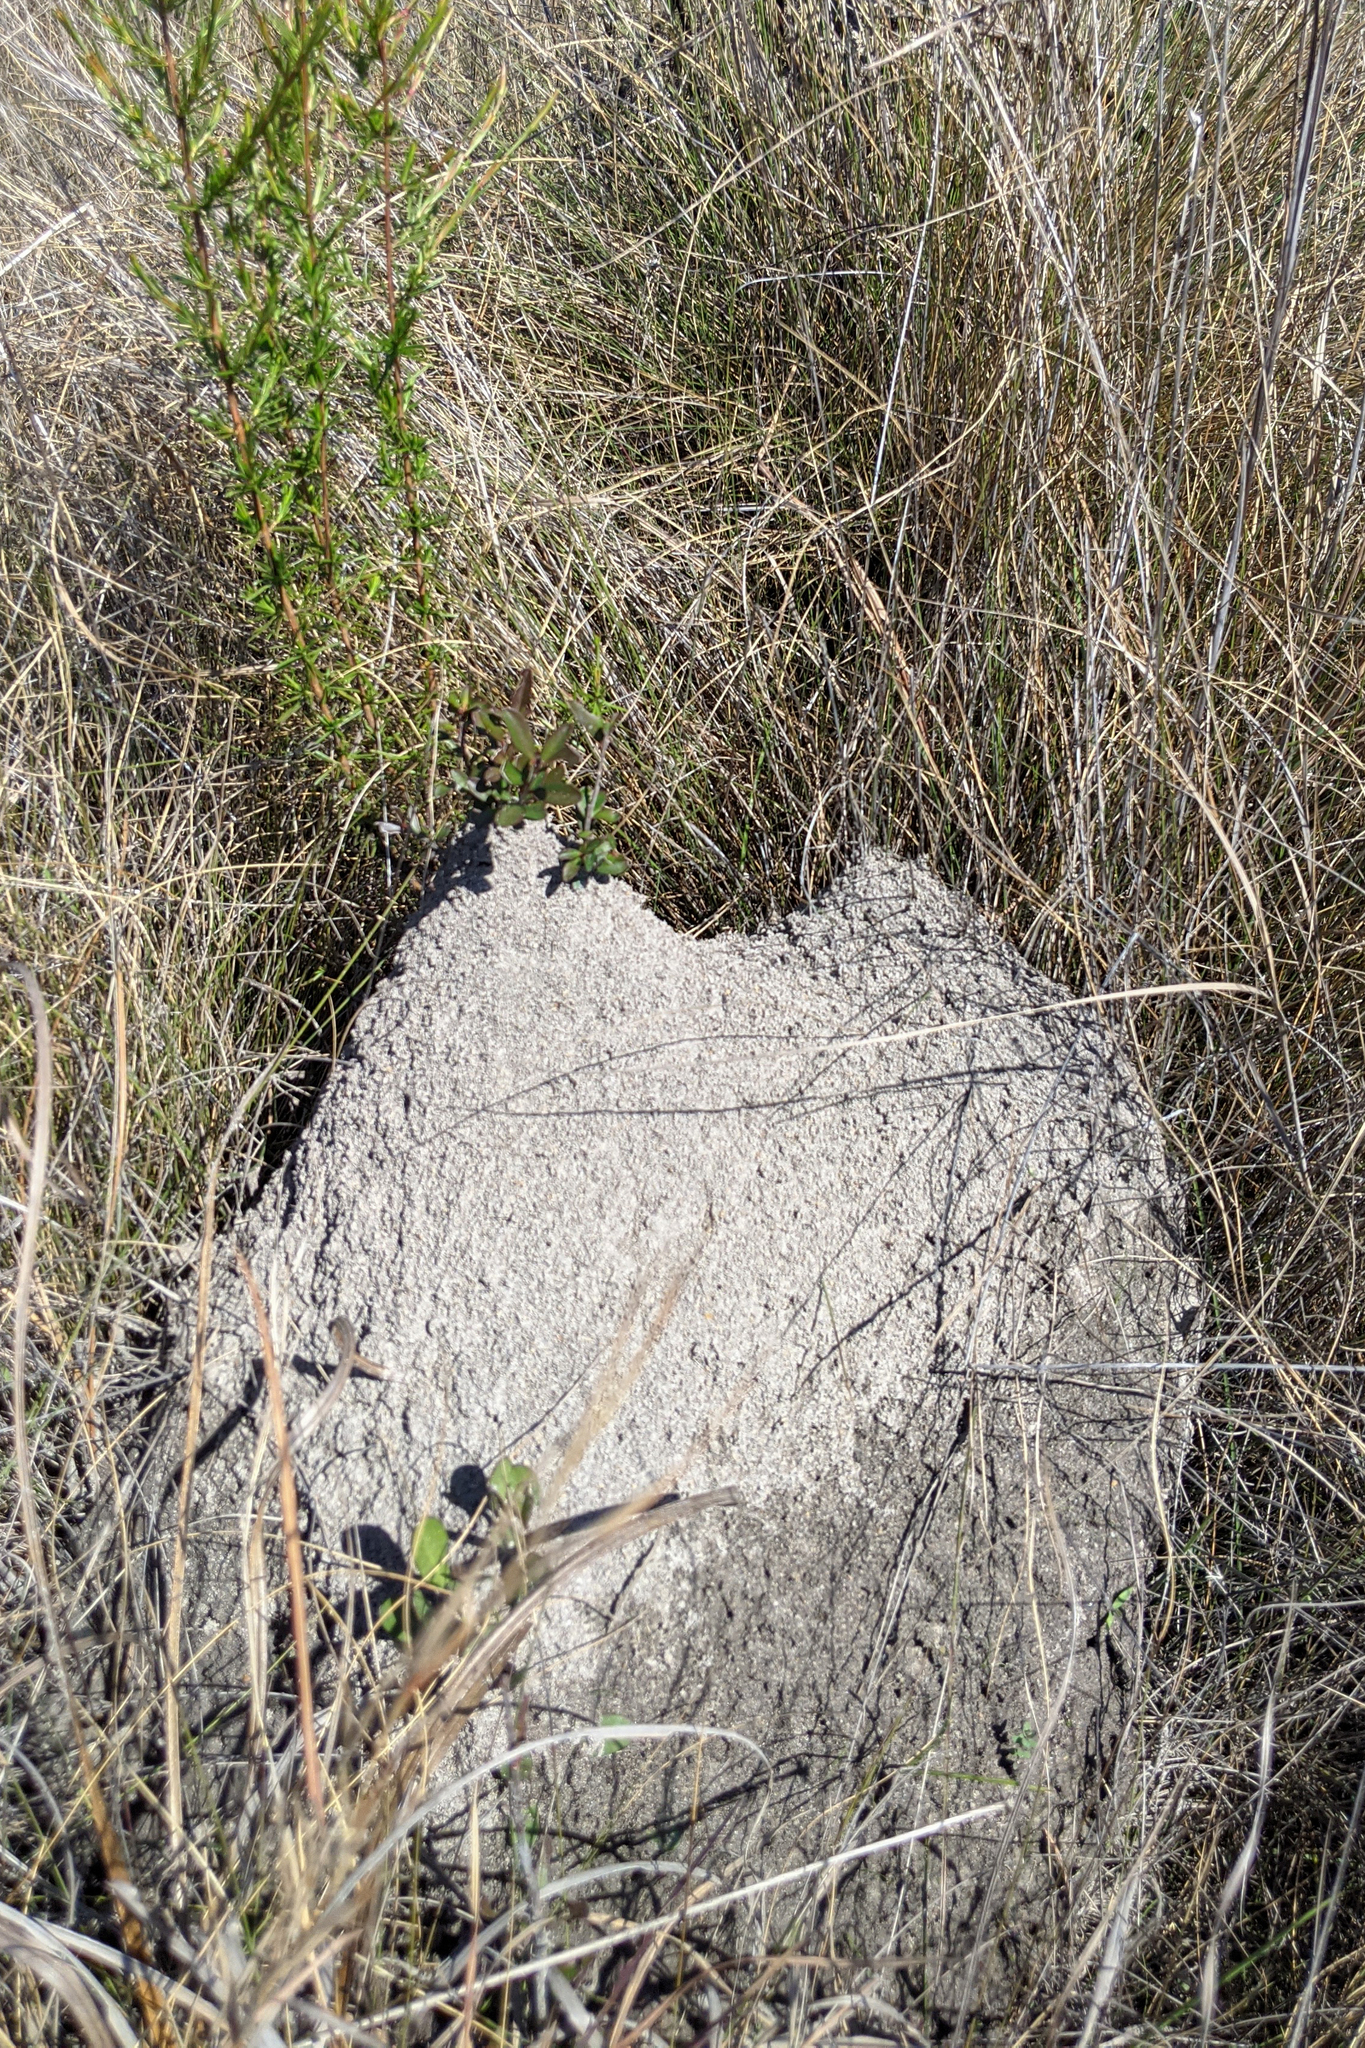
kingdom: Animalia
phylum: Arthropoda
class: Insecta
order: Hymenoptera
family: Formicidae
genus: Solenopsis
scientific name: Solenopsis invicta
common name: Red imported fire ant
